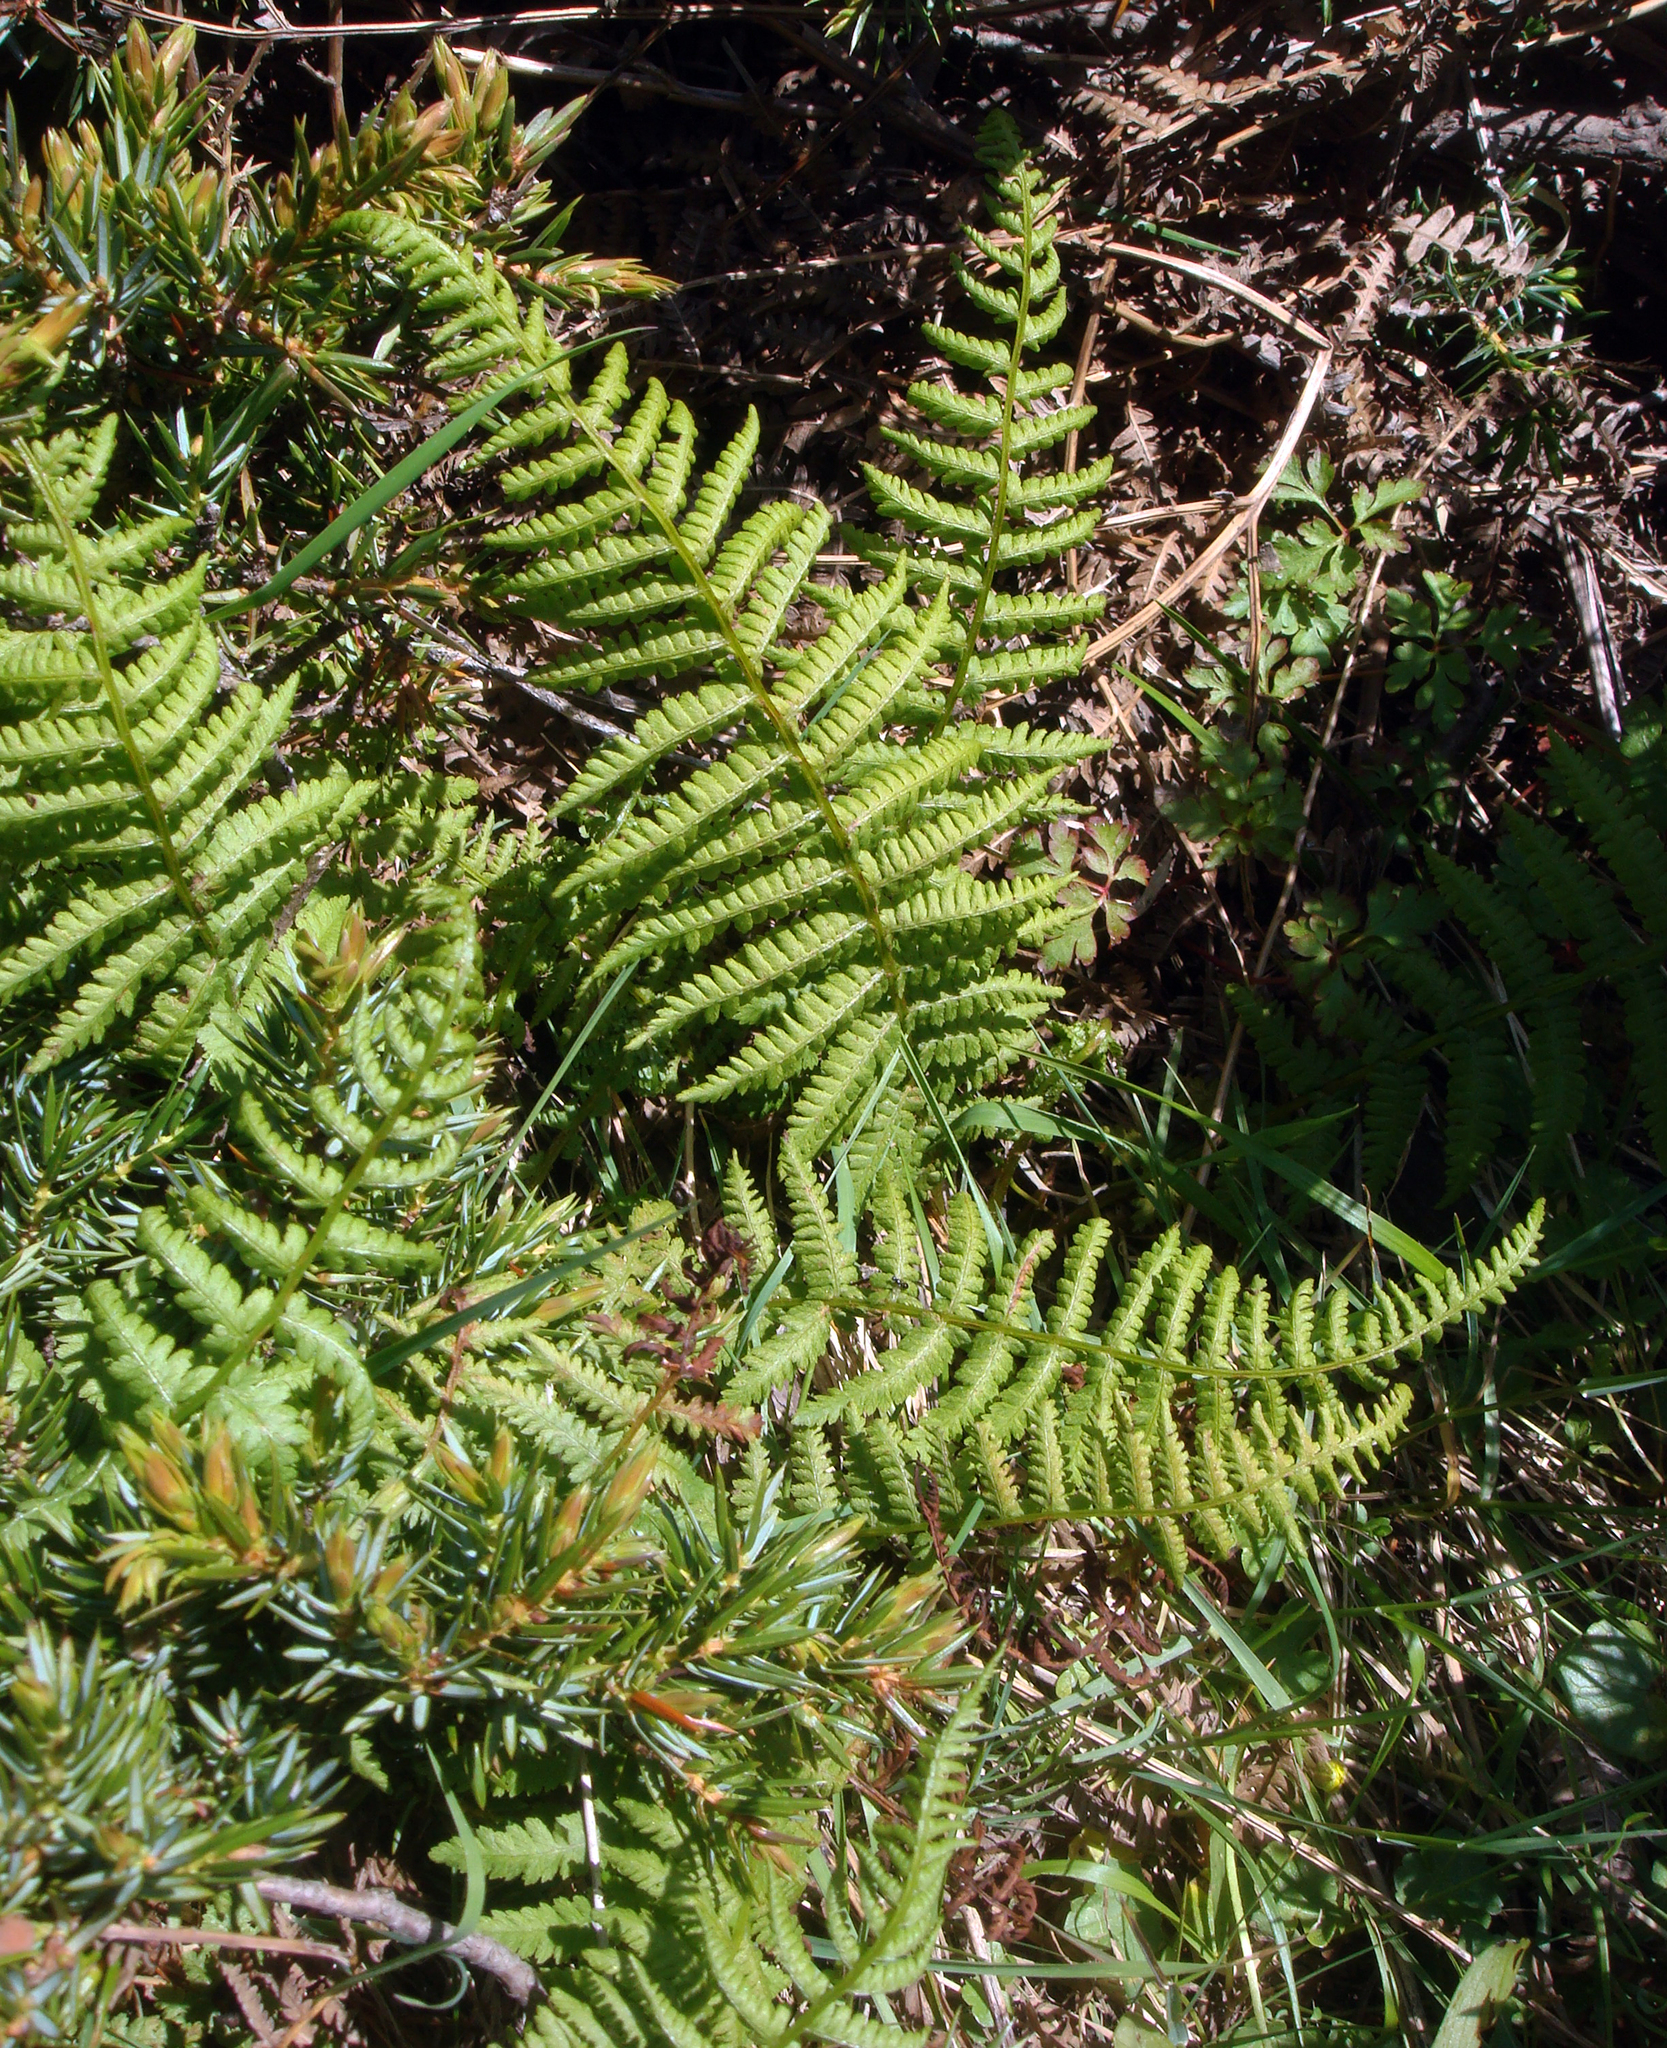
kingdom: Plantae
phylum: Tracheophyta
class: Polypodiopsida
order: Polypodiales
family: Cystopteridaceae
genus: Cystopteris
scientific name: Cystopteris fragilis
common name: Brittle bladder fern
